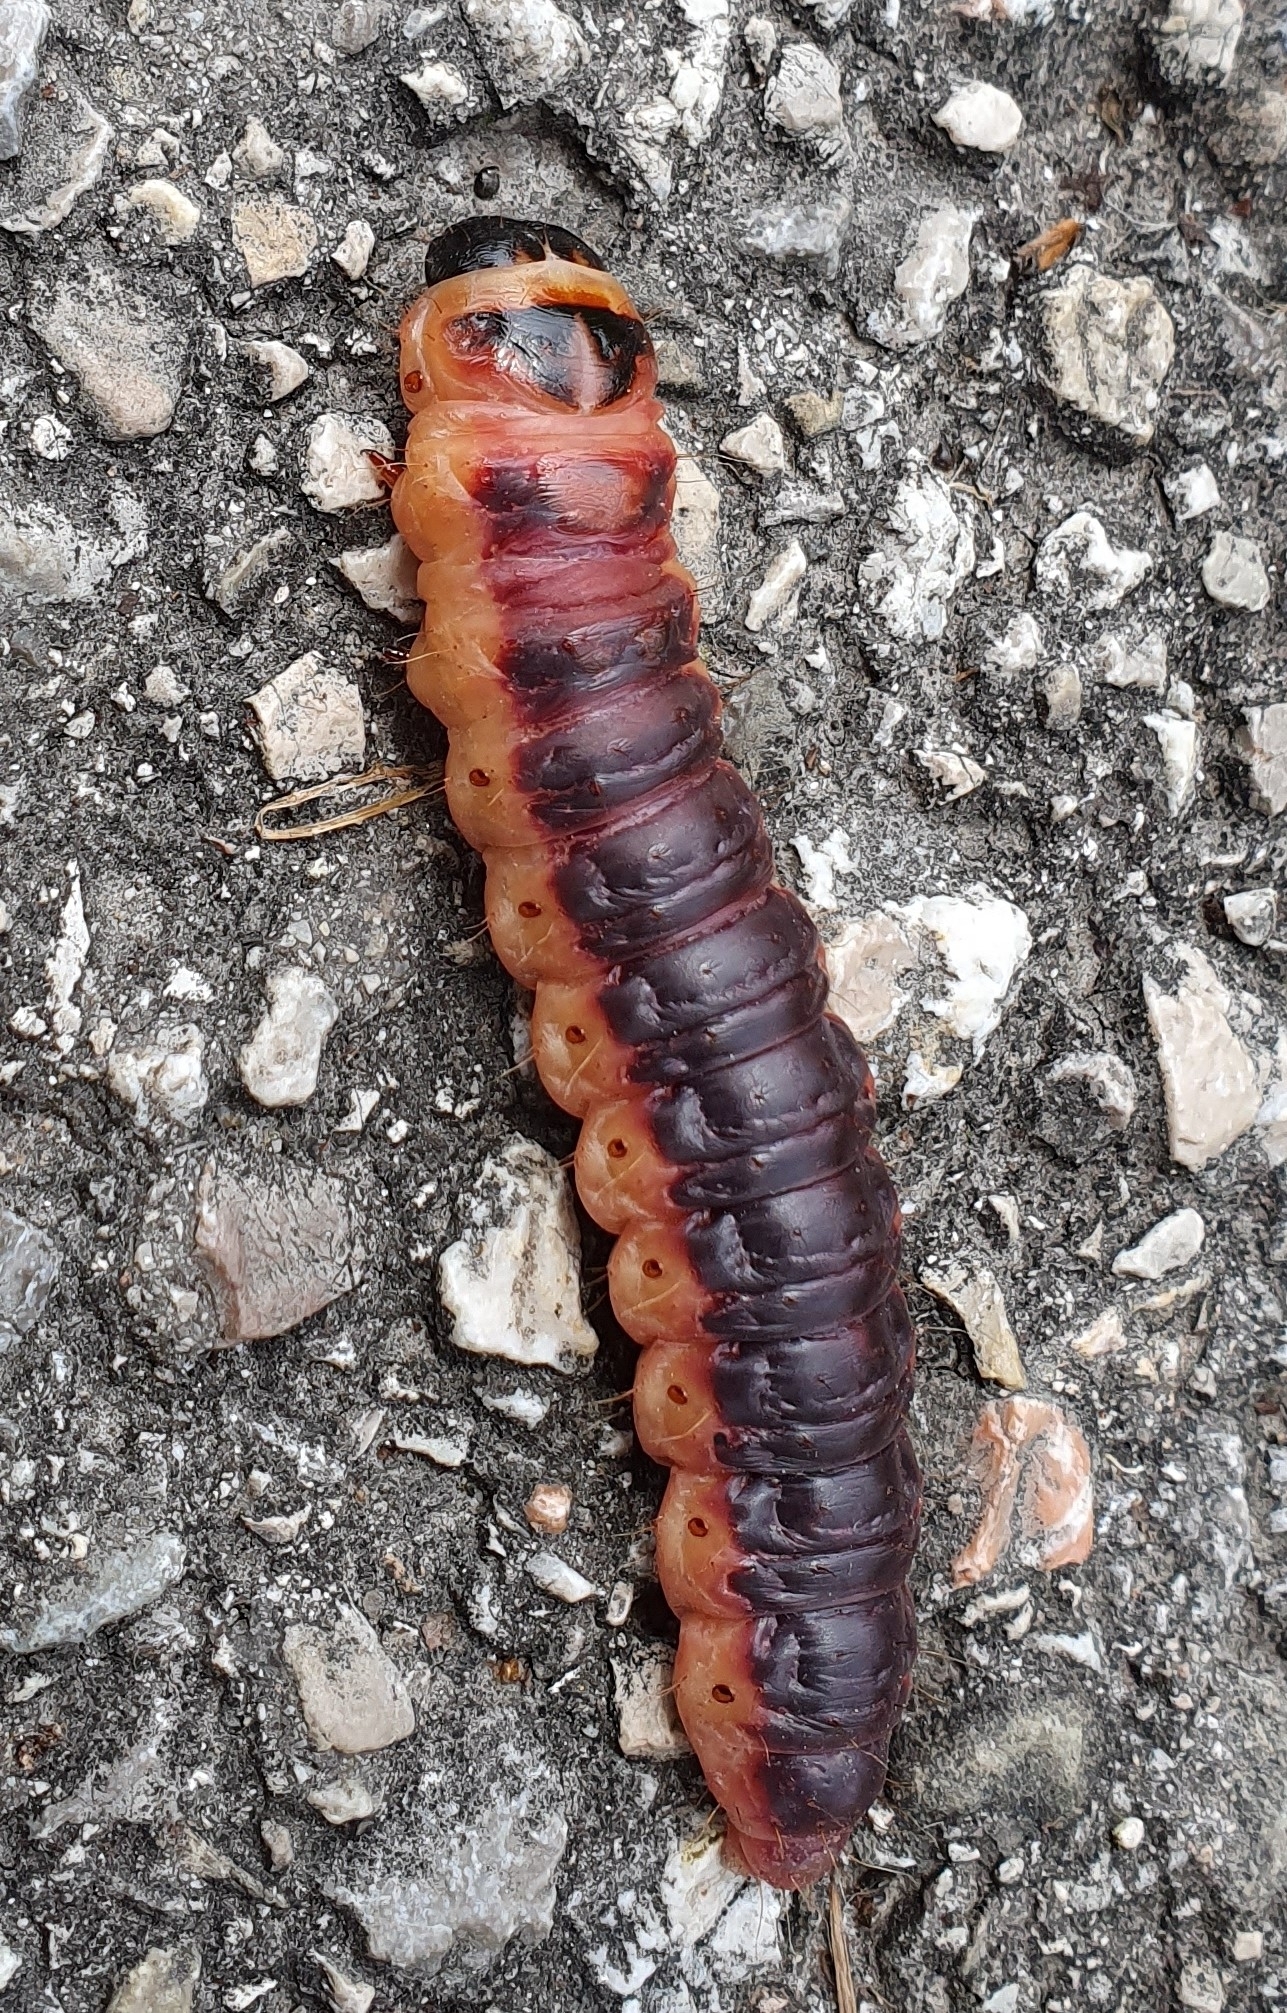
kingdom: Animalia
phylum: Arthropoda
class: Insecta
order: Lepidoptera
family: Cossidae
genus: Cossus
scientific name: Cossus cossus
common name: Goat moth
